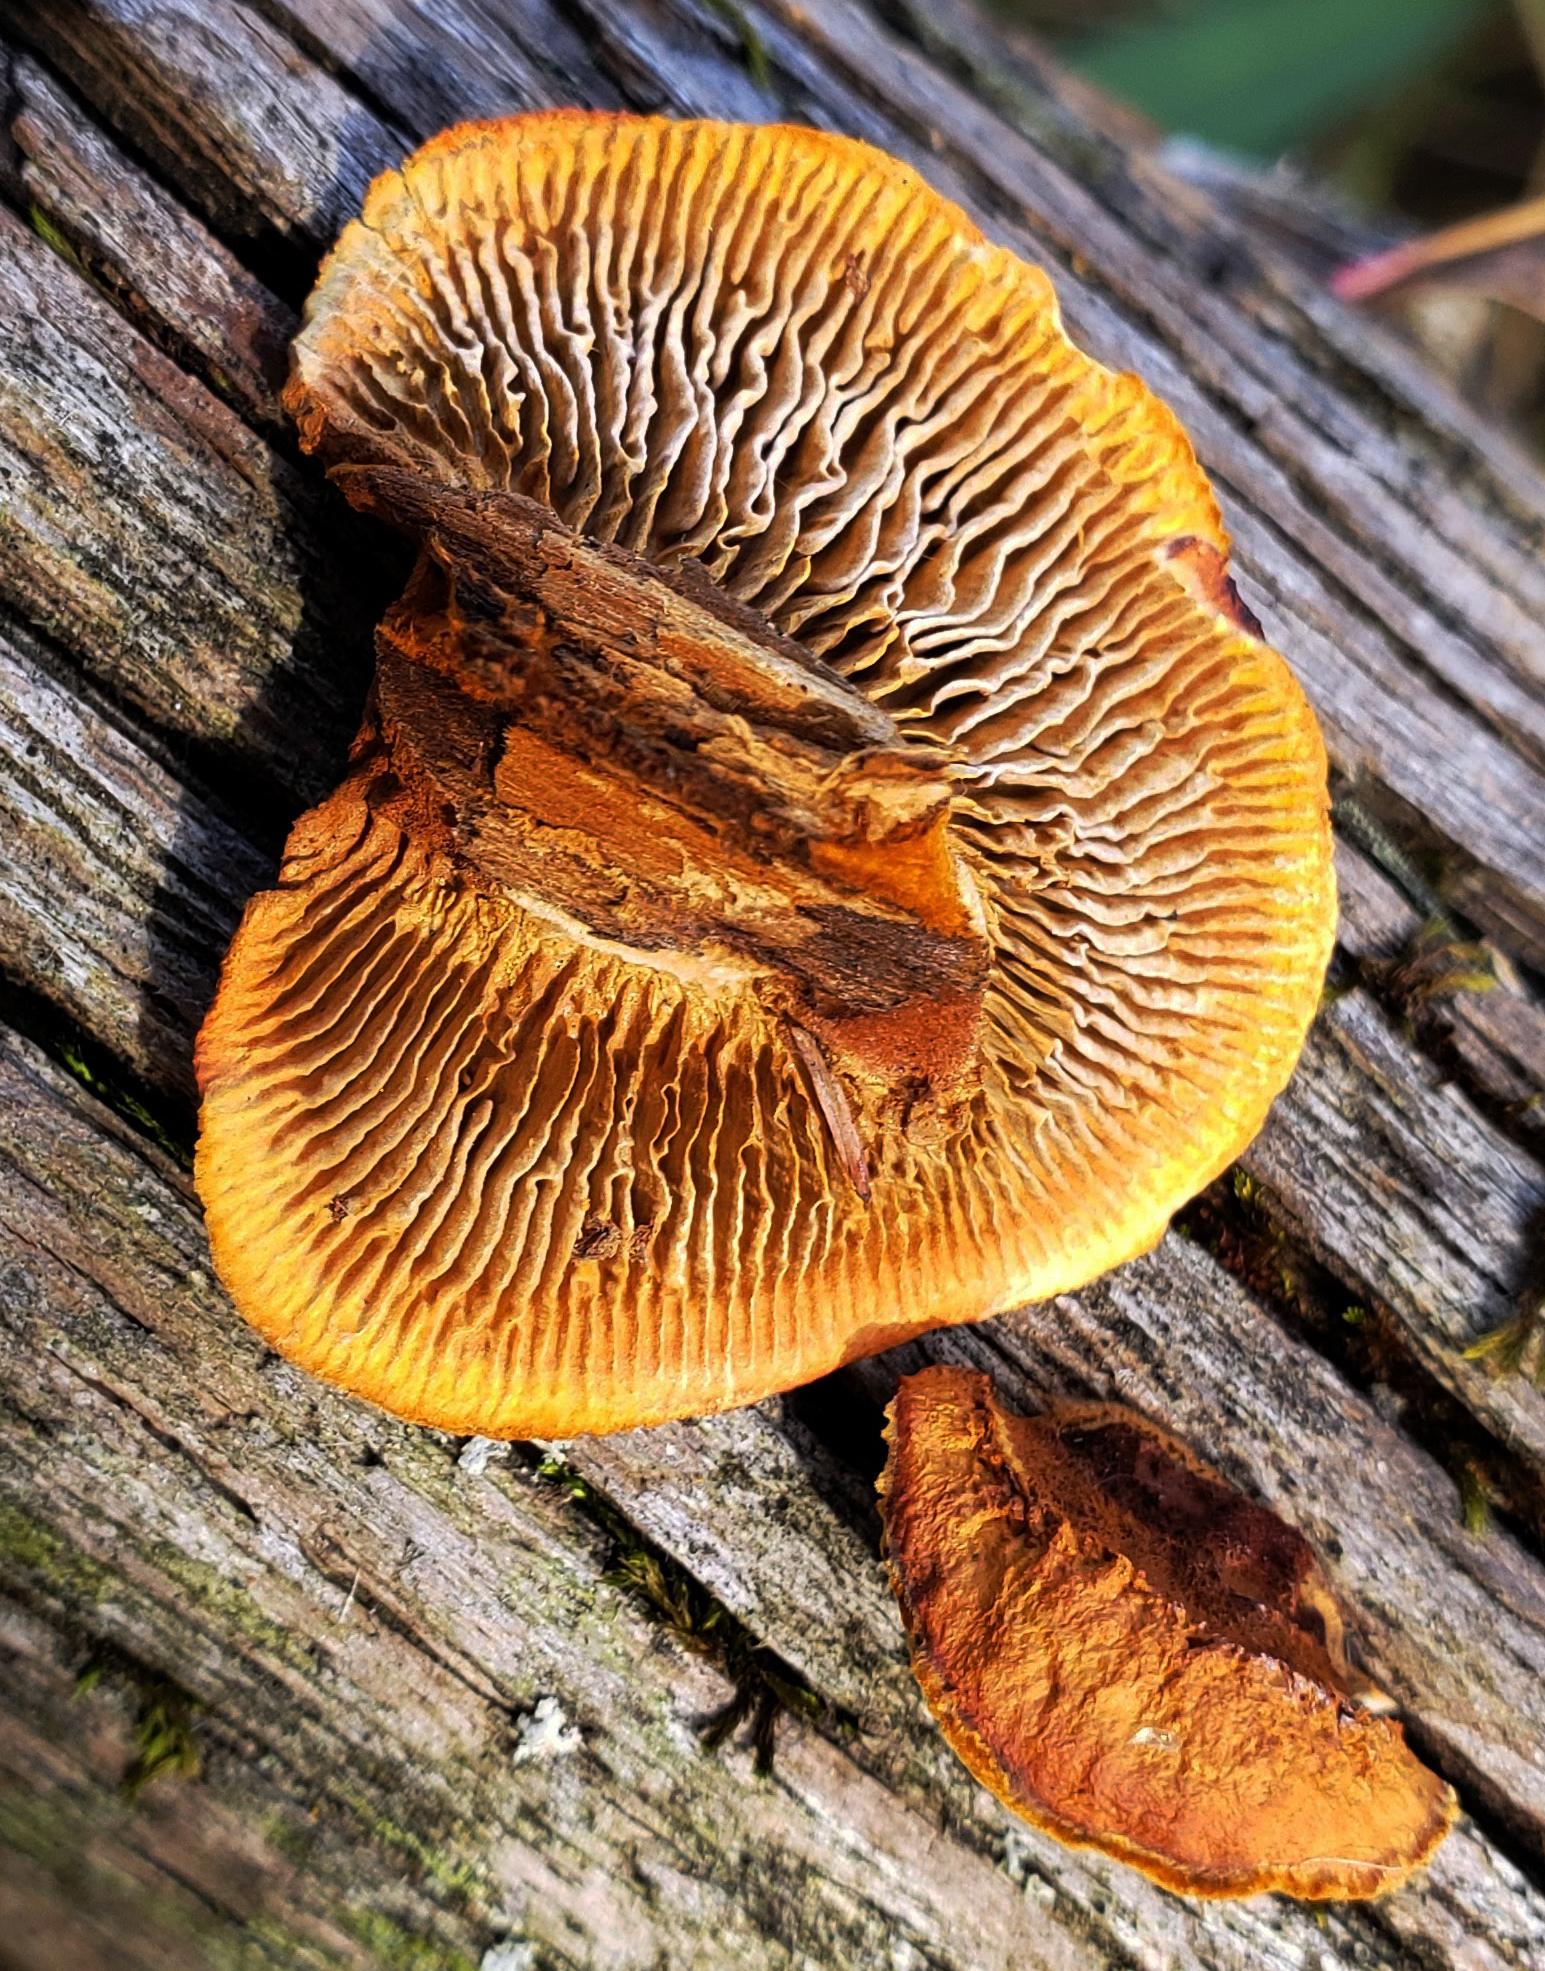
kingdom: Fungi
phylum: Basidiomycota
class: Agaricomycetes
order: Gloeophyllales
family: Gloeophyllaceae
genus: Gloeophyllum
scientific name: Gloeophyllum sepiarium
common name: Conifer mazegill
